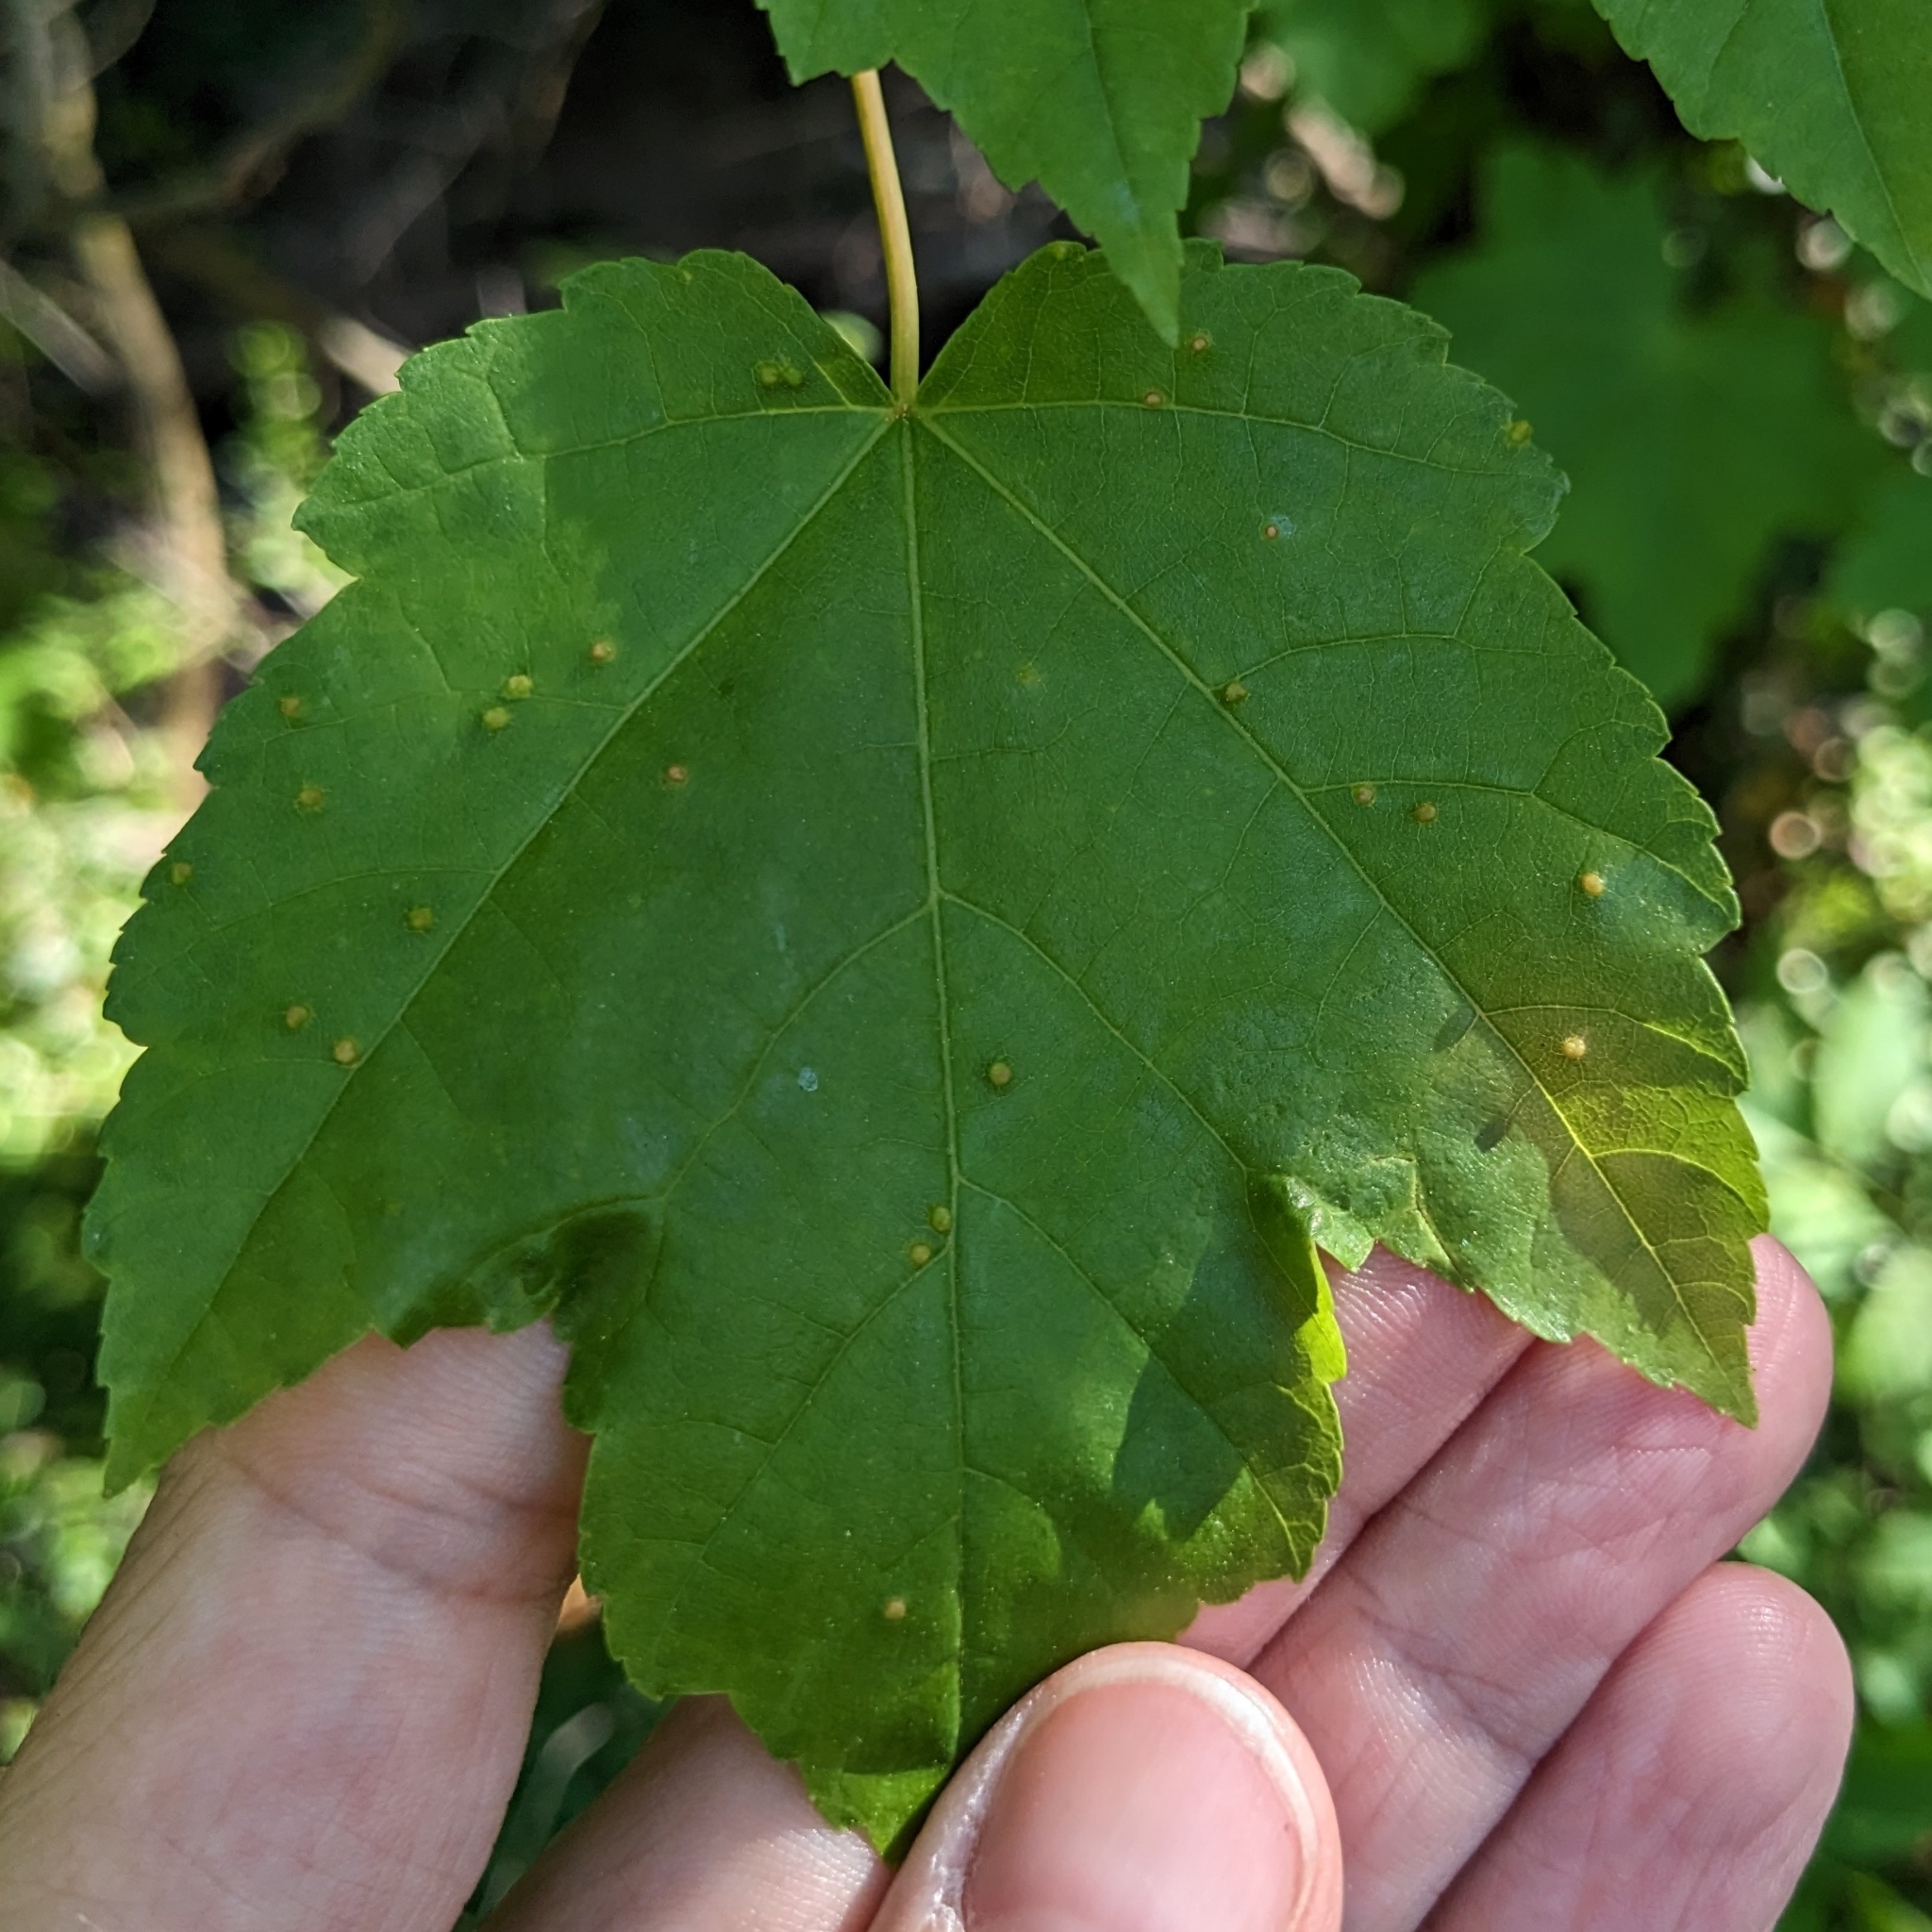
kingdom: Animalia
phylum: Arthropoda
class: Arachnida
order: Trombidiformes
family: Eriophyidae
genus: Vasates
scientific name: Vasates quadripedes
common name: Maple bladder gall mite
